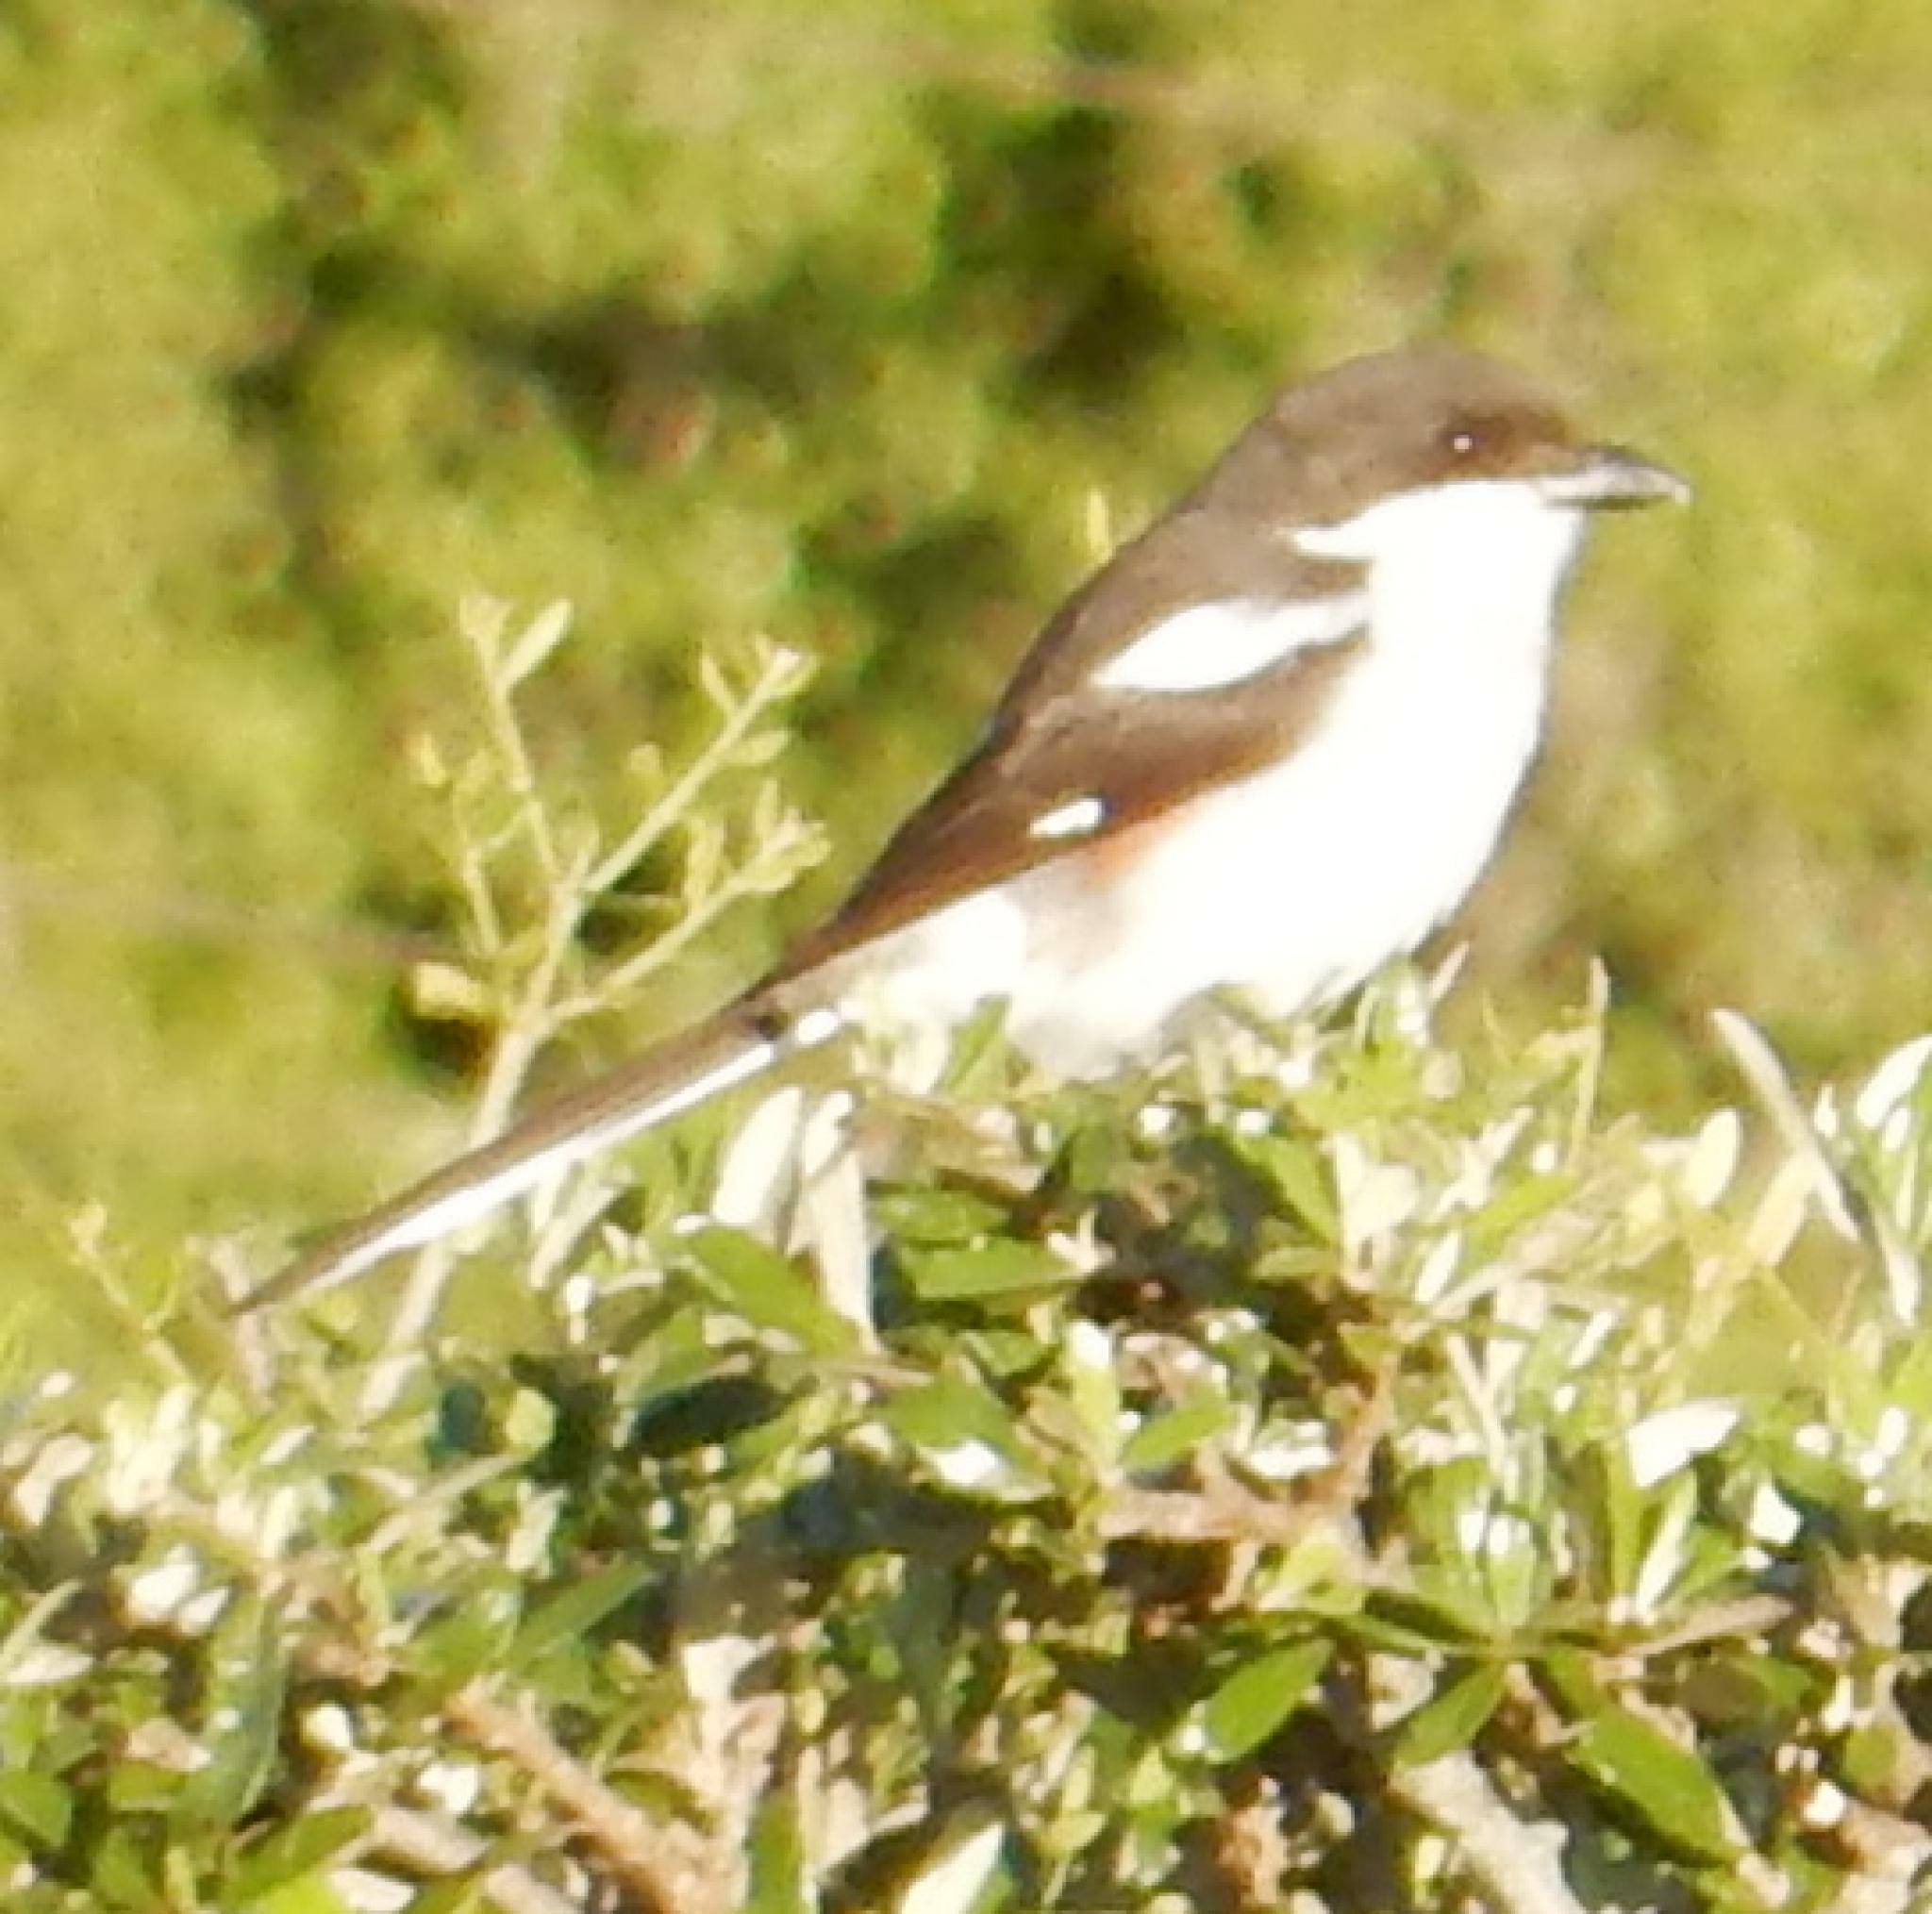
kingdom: Animalia
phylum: Chordata
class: Aves
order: Passeriformes
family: Laniidae
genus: Lanius
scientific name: Lanius collaris
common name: Southern fiscal
